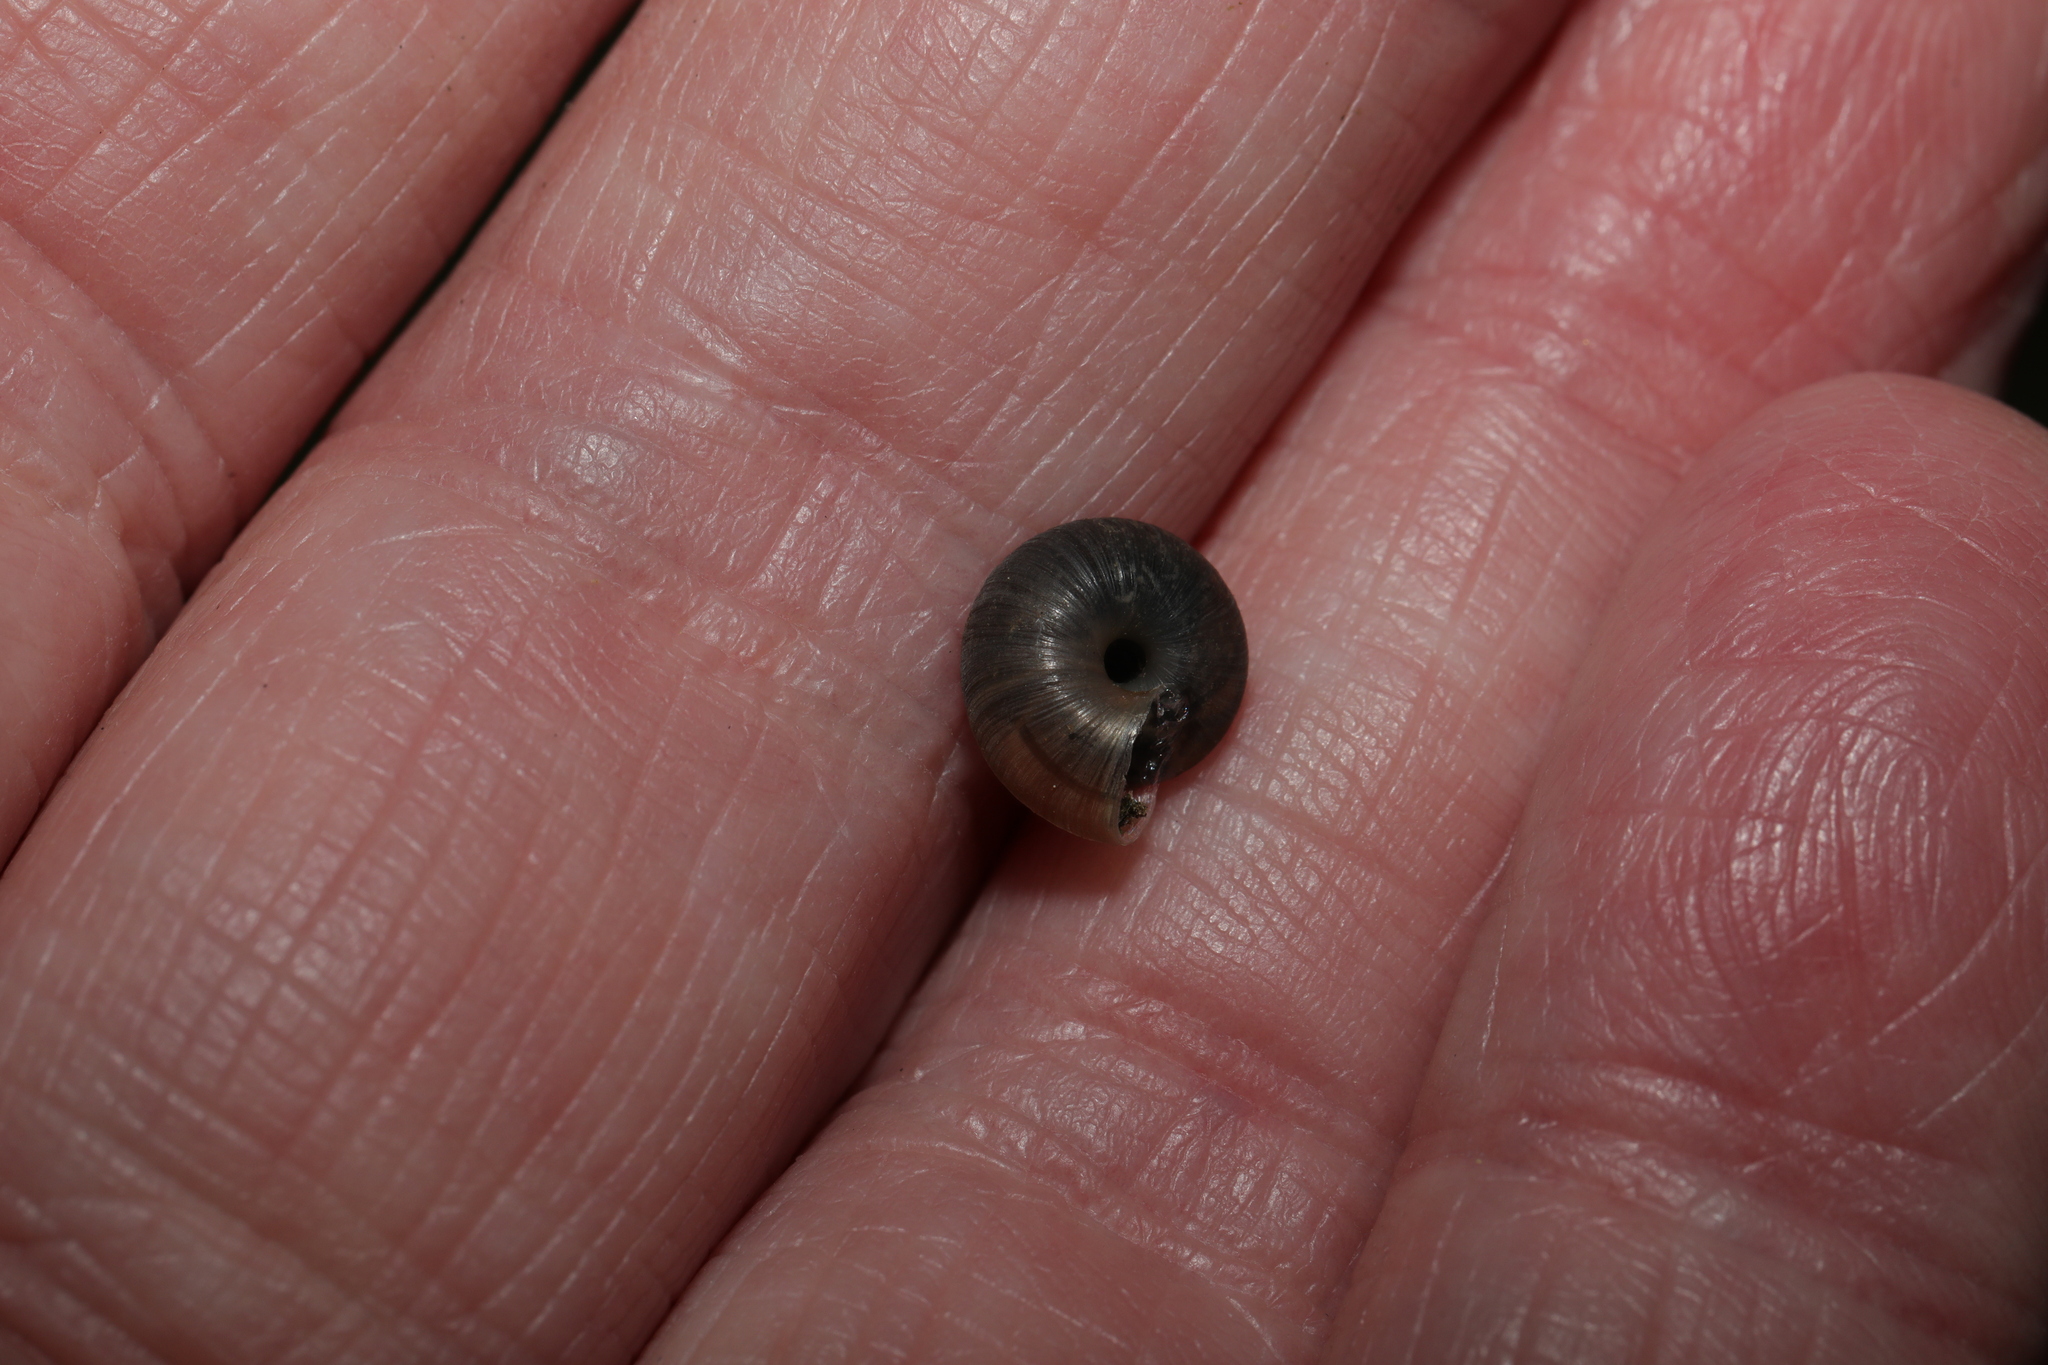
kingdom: Animalia
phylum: Mollusca
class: Gastropoda
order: Stylommatophora
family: Hygromiidae
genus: Trochulus
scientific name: Trochulus striolatus
